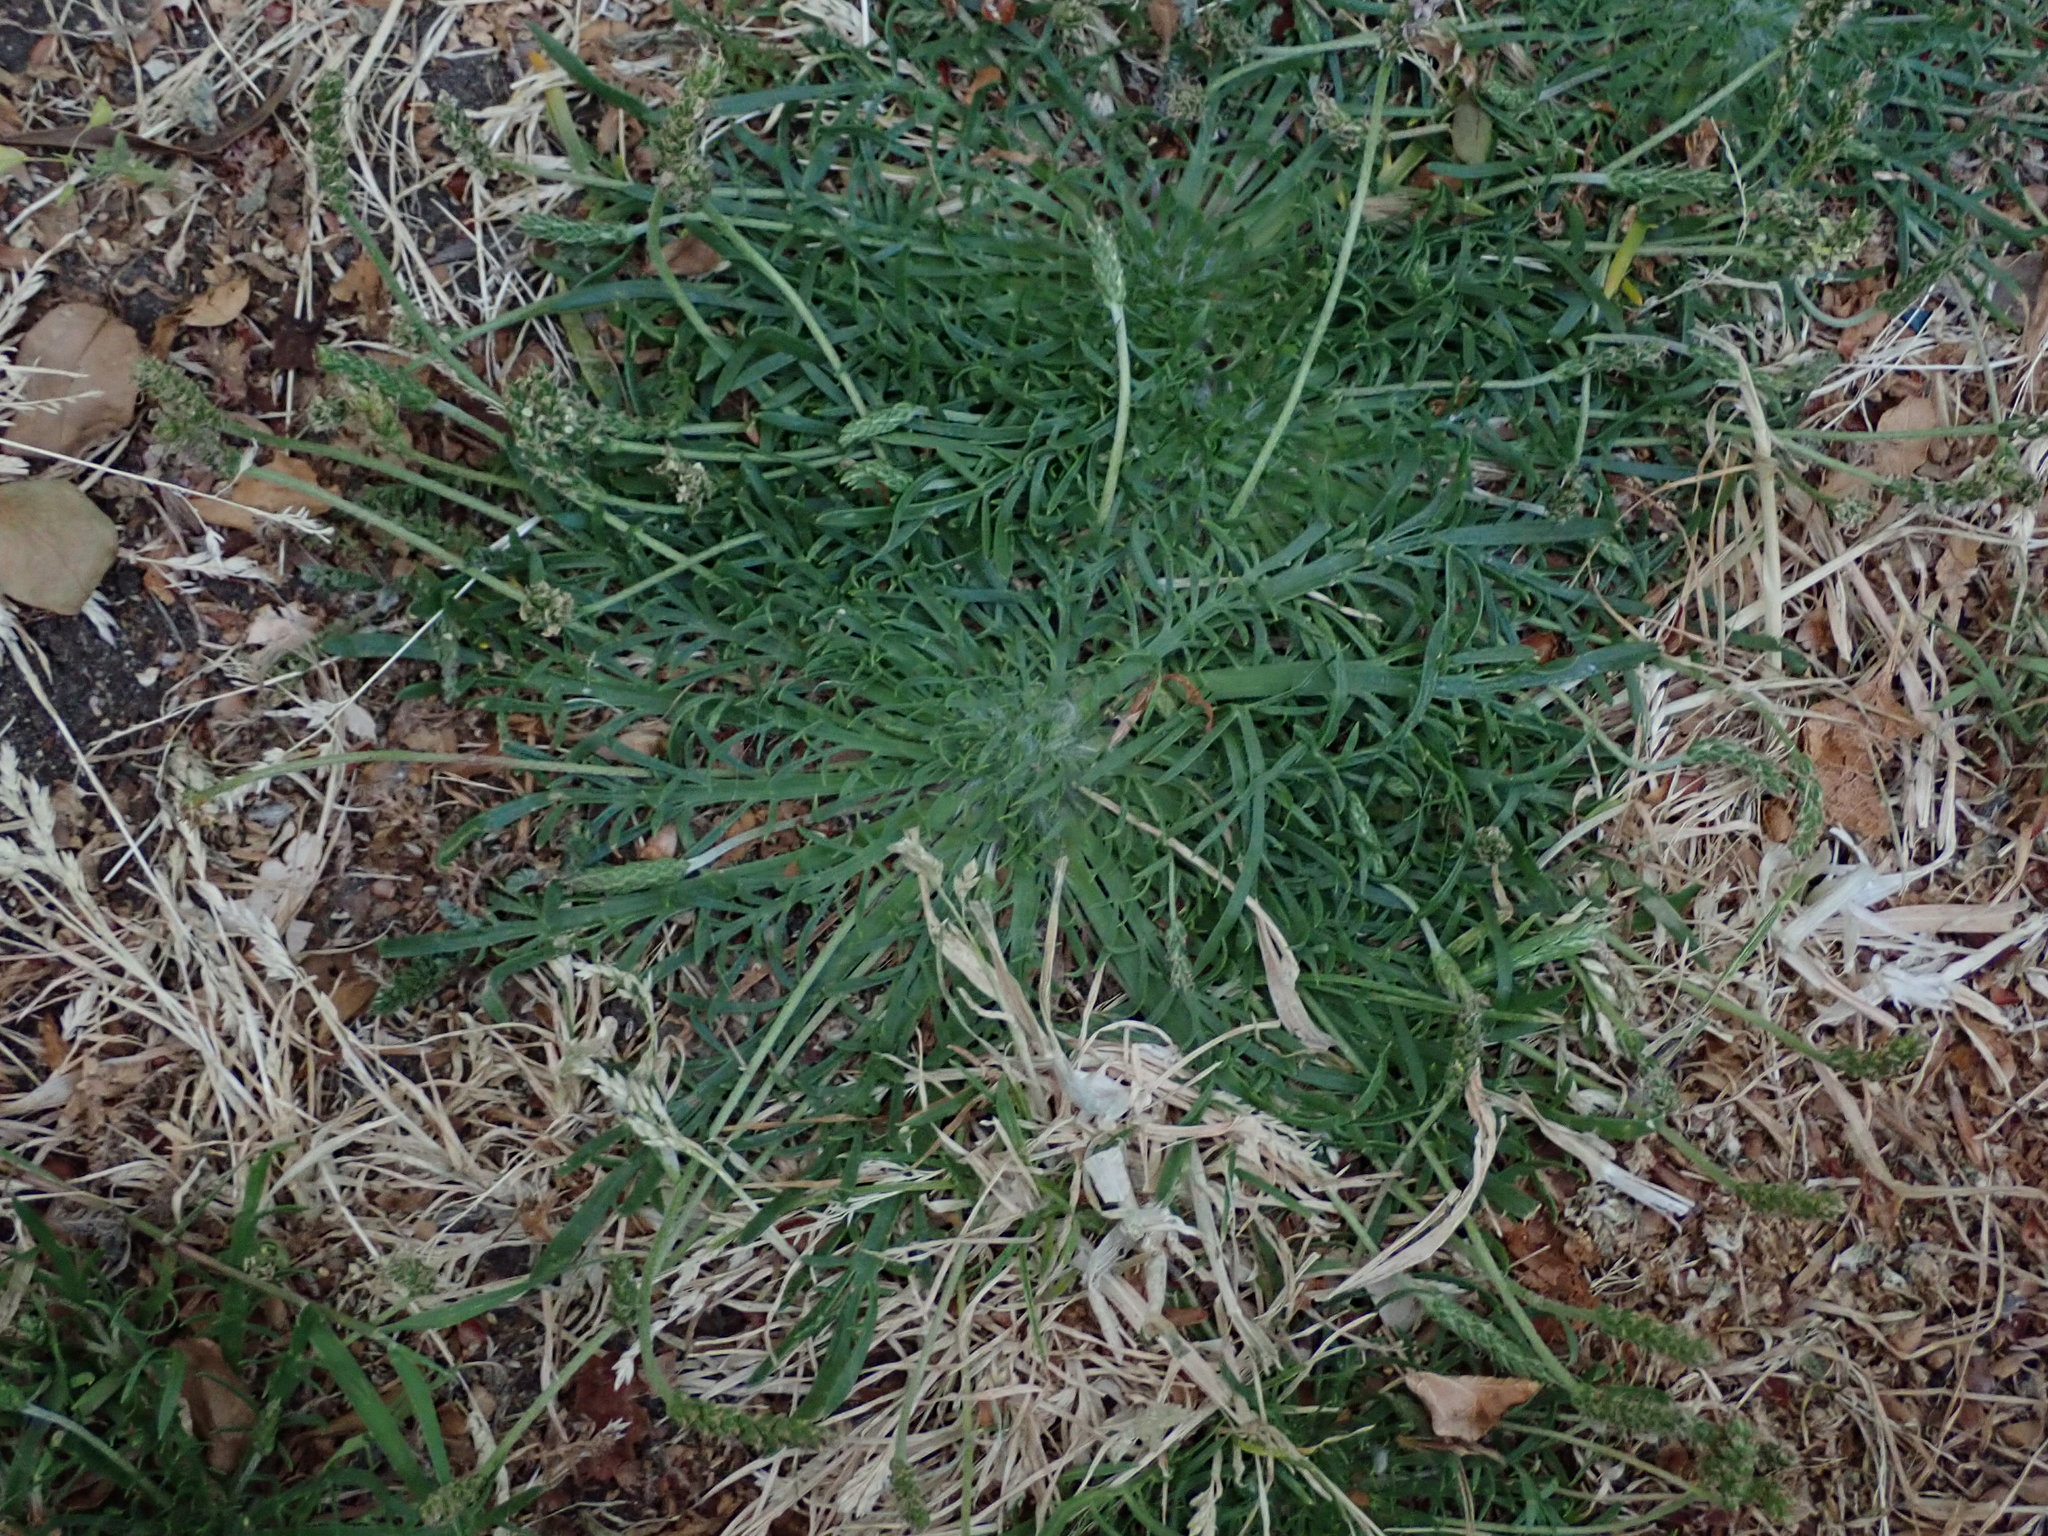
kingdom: Plantae
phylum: Tracheophyta
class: Magnoliopsida
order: Lamiales
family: Plantaginaceae
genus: Plantago
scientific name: Plantago coronopus
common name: Buck's-horn plantain
